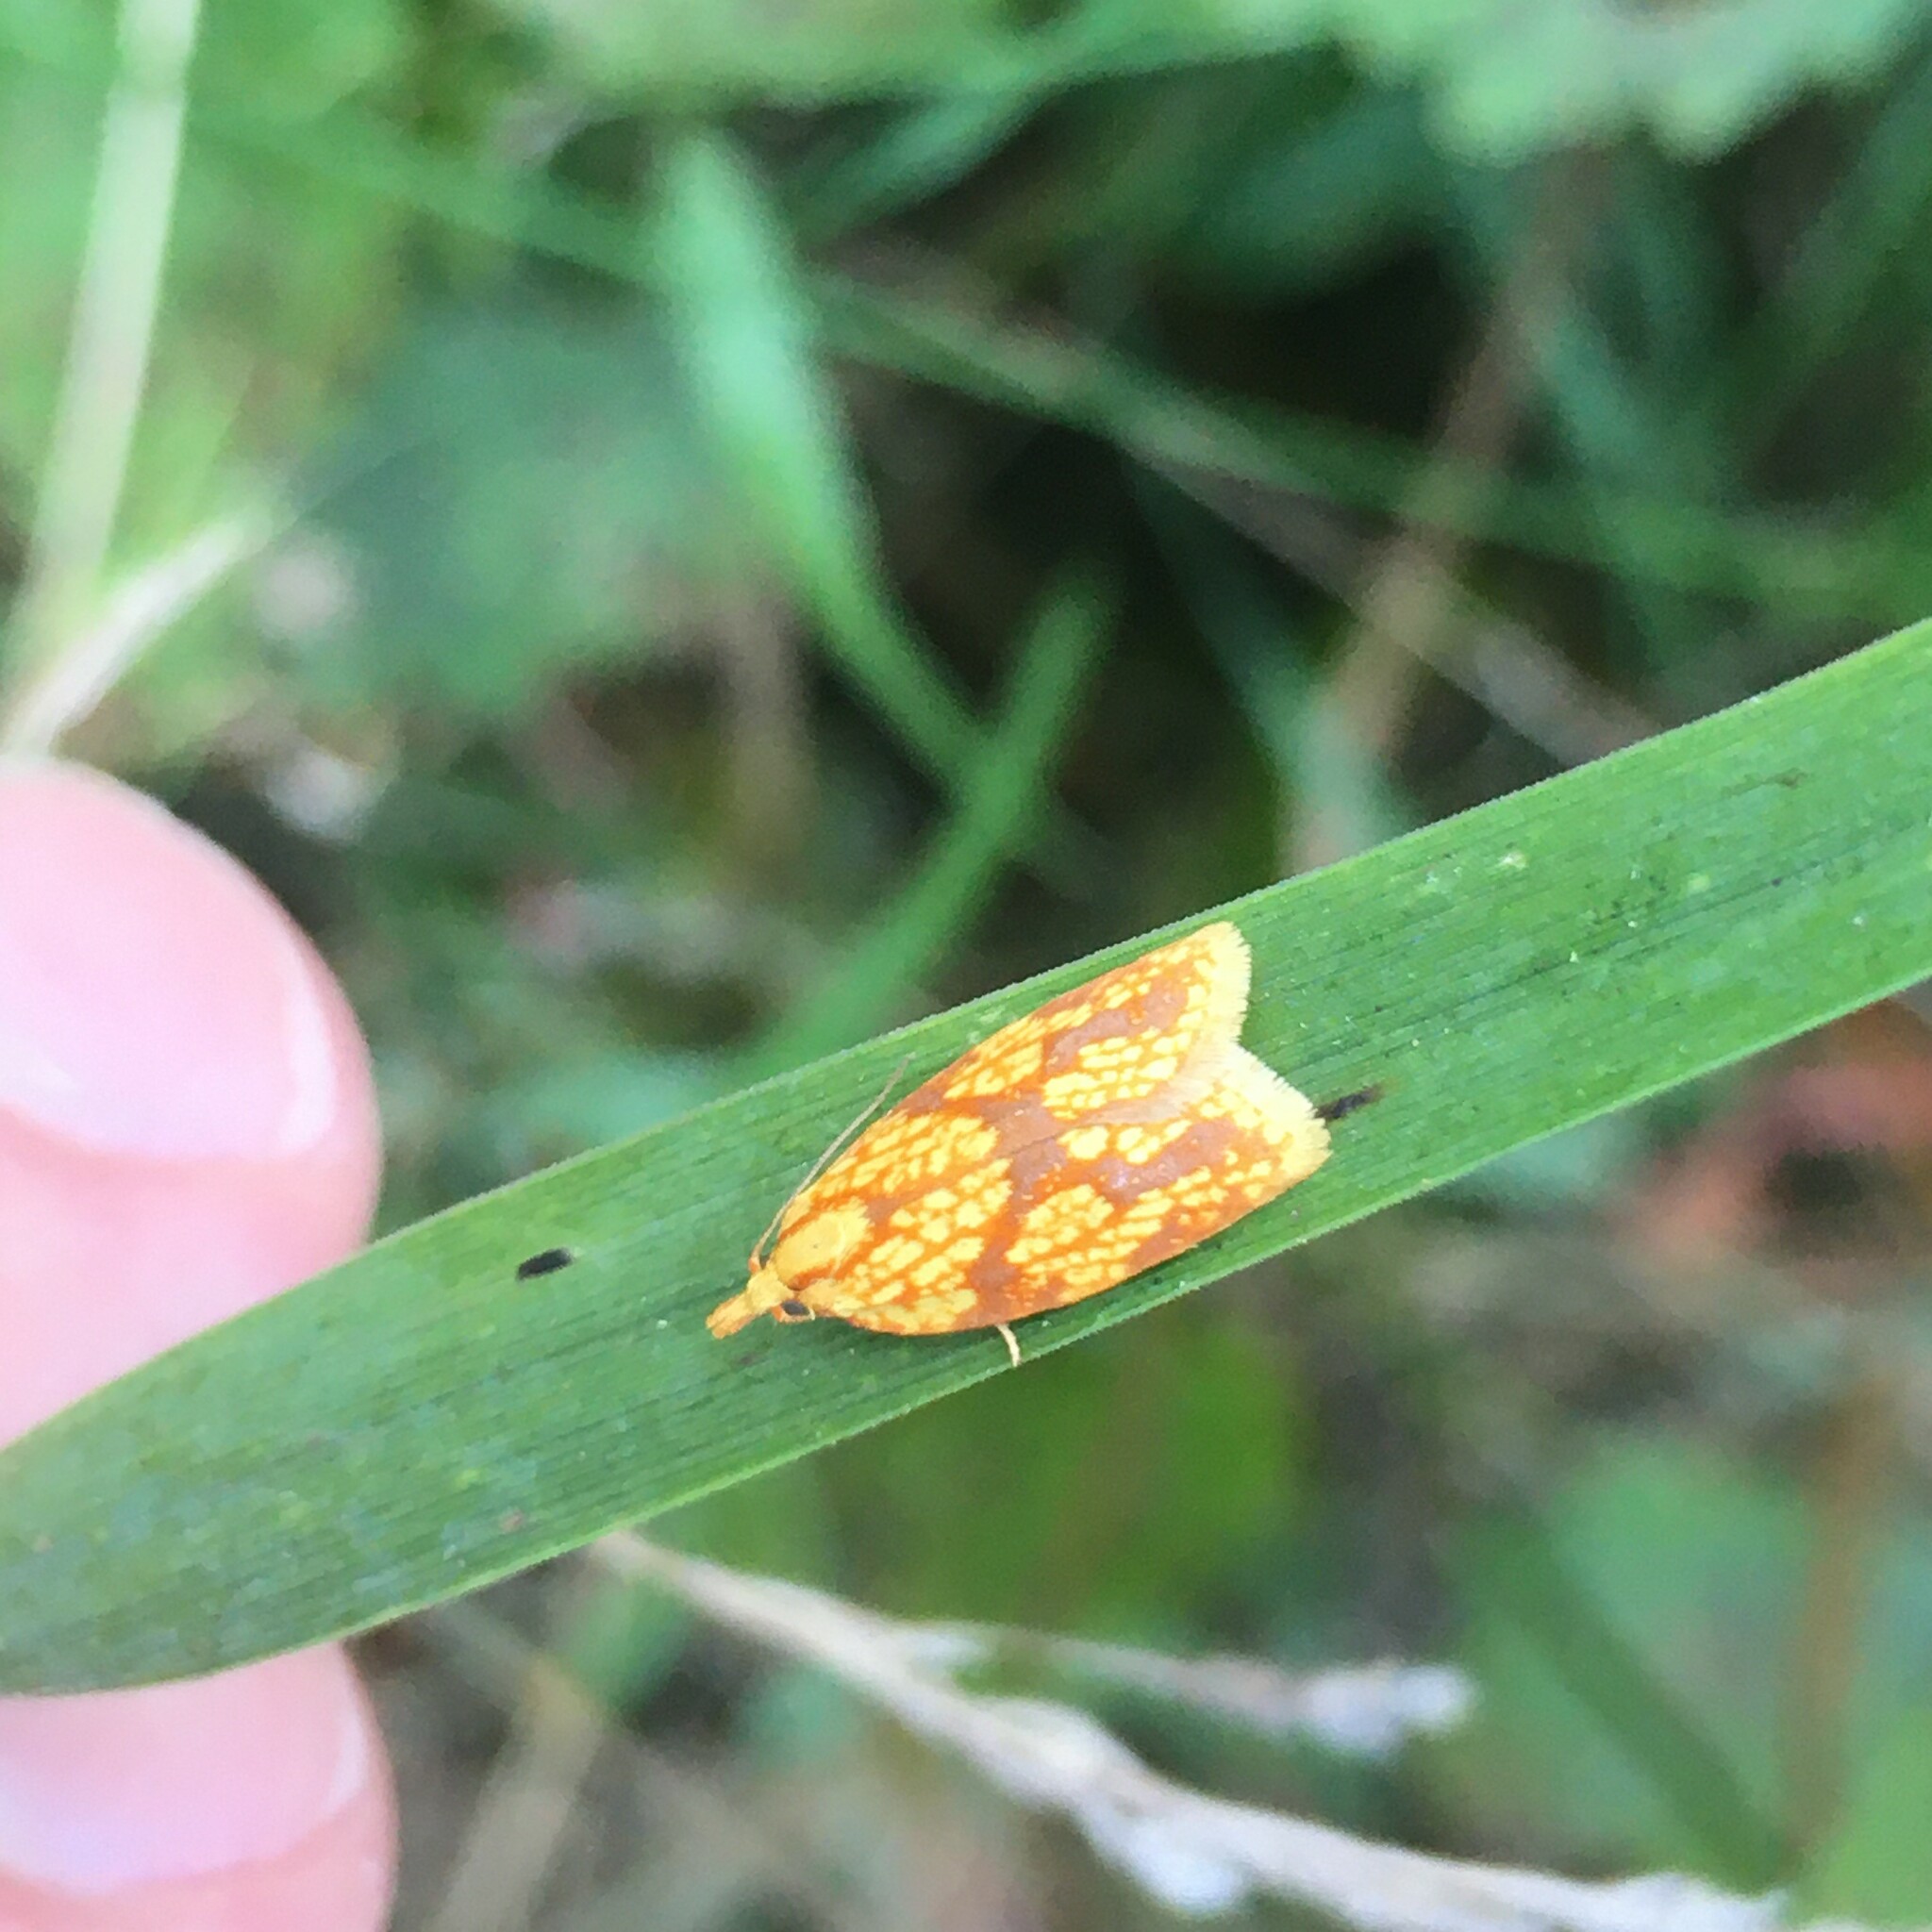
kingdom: Animalia
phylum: Arthropoda
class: Insecta
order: Lepidoptera
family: Tortricidae
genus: Sparganothis
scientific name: Sparganothis sulfureana
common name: Sparganothis fruitworm moth
